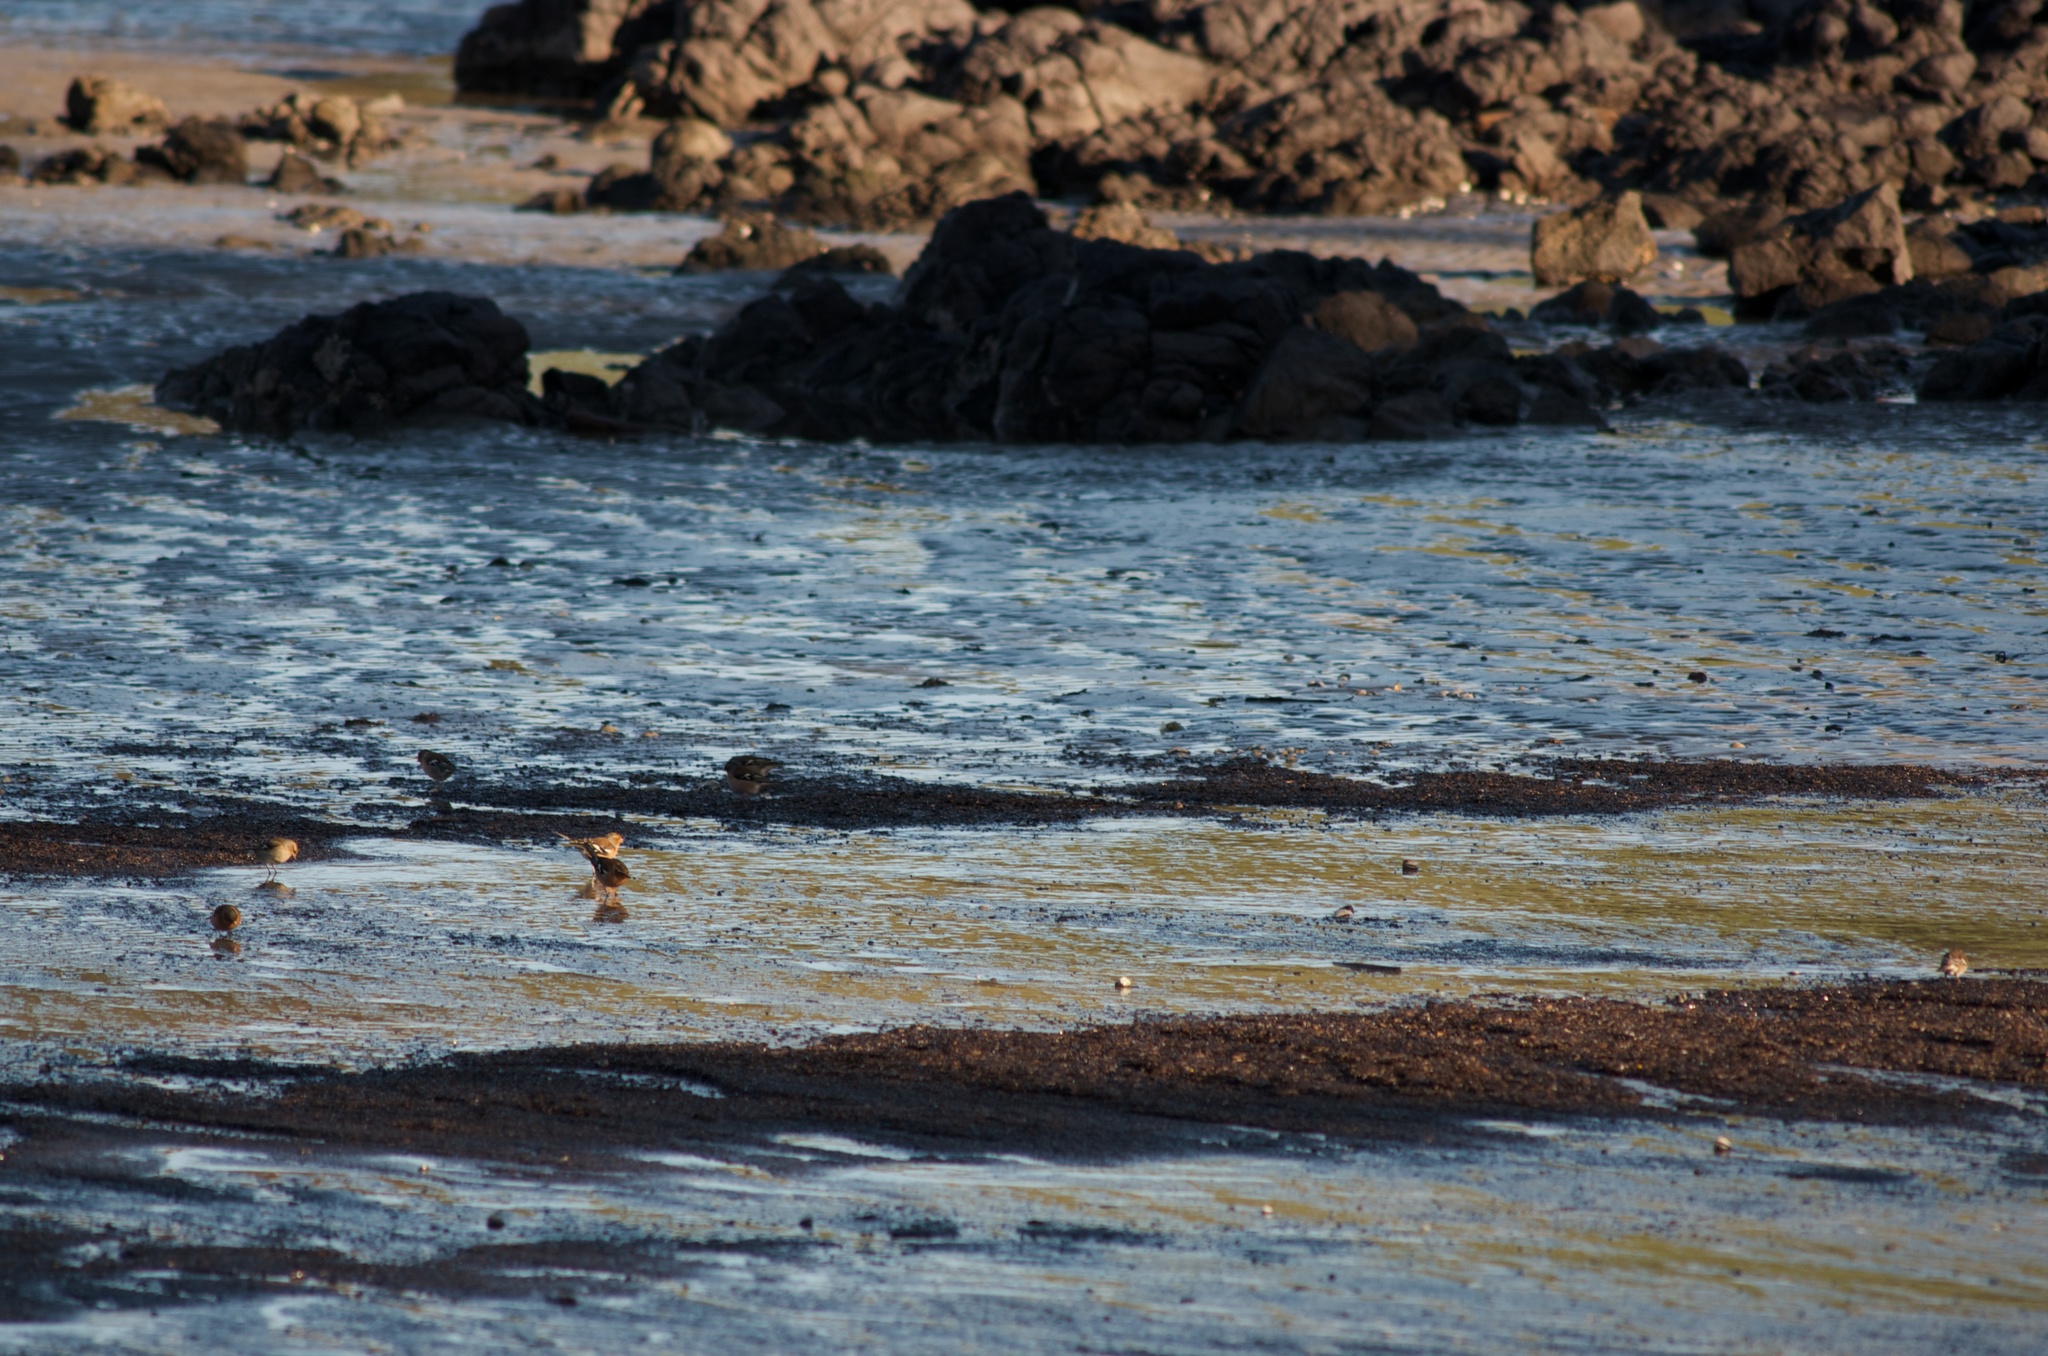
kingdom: Animalia
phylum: Chordata
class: Aves
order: Passeriformes
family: Fringillidae
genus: Fringilla
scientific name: Fringilla coelebs
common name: Common chaffinch
